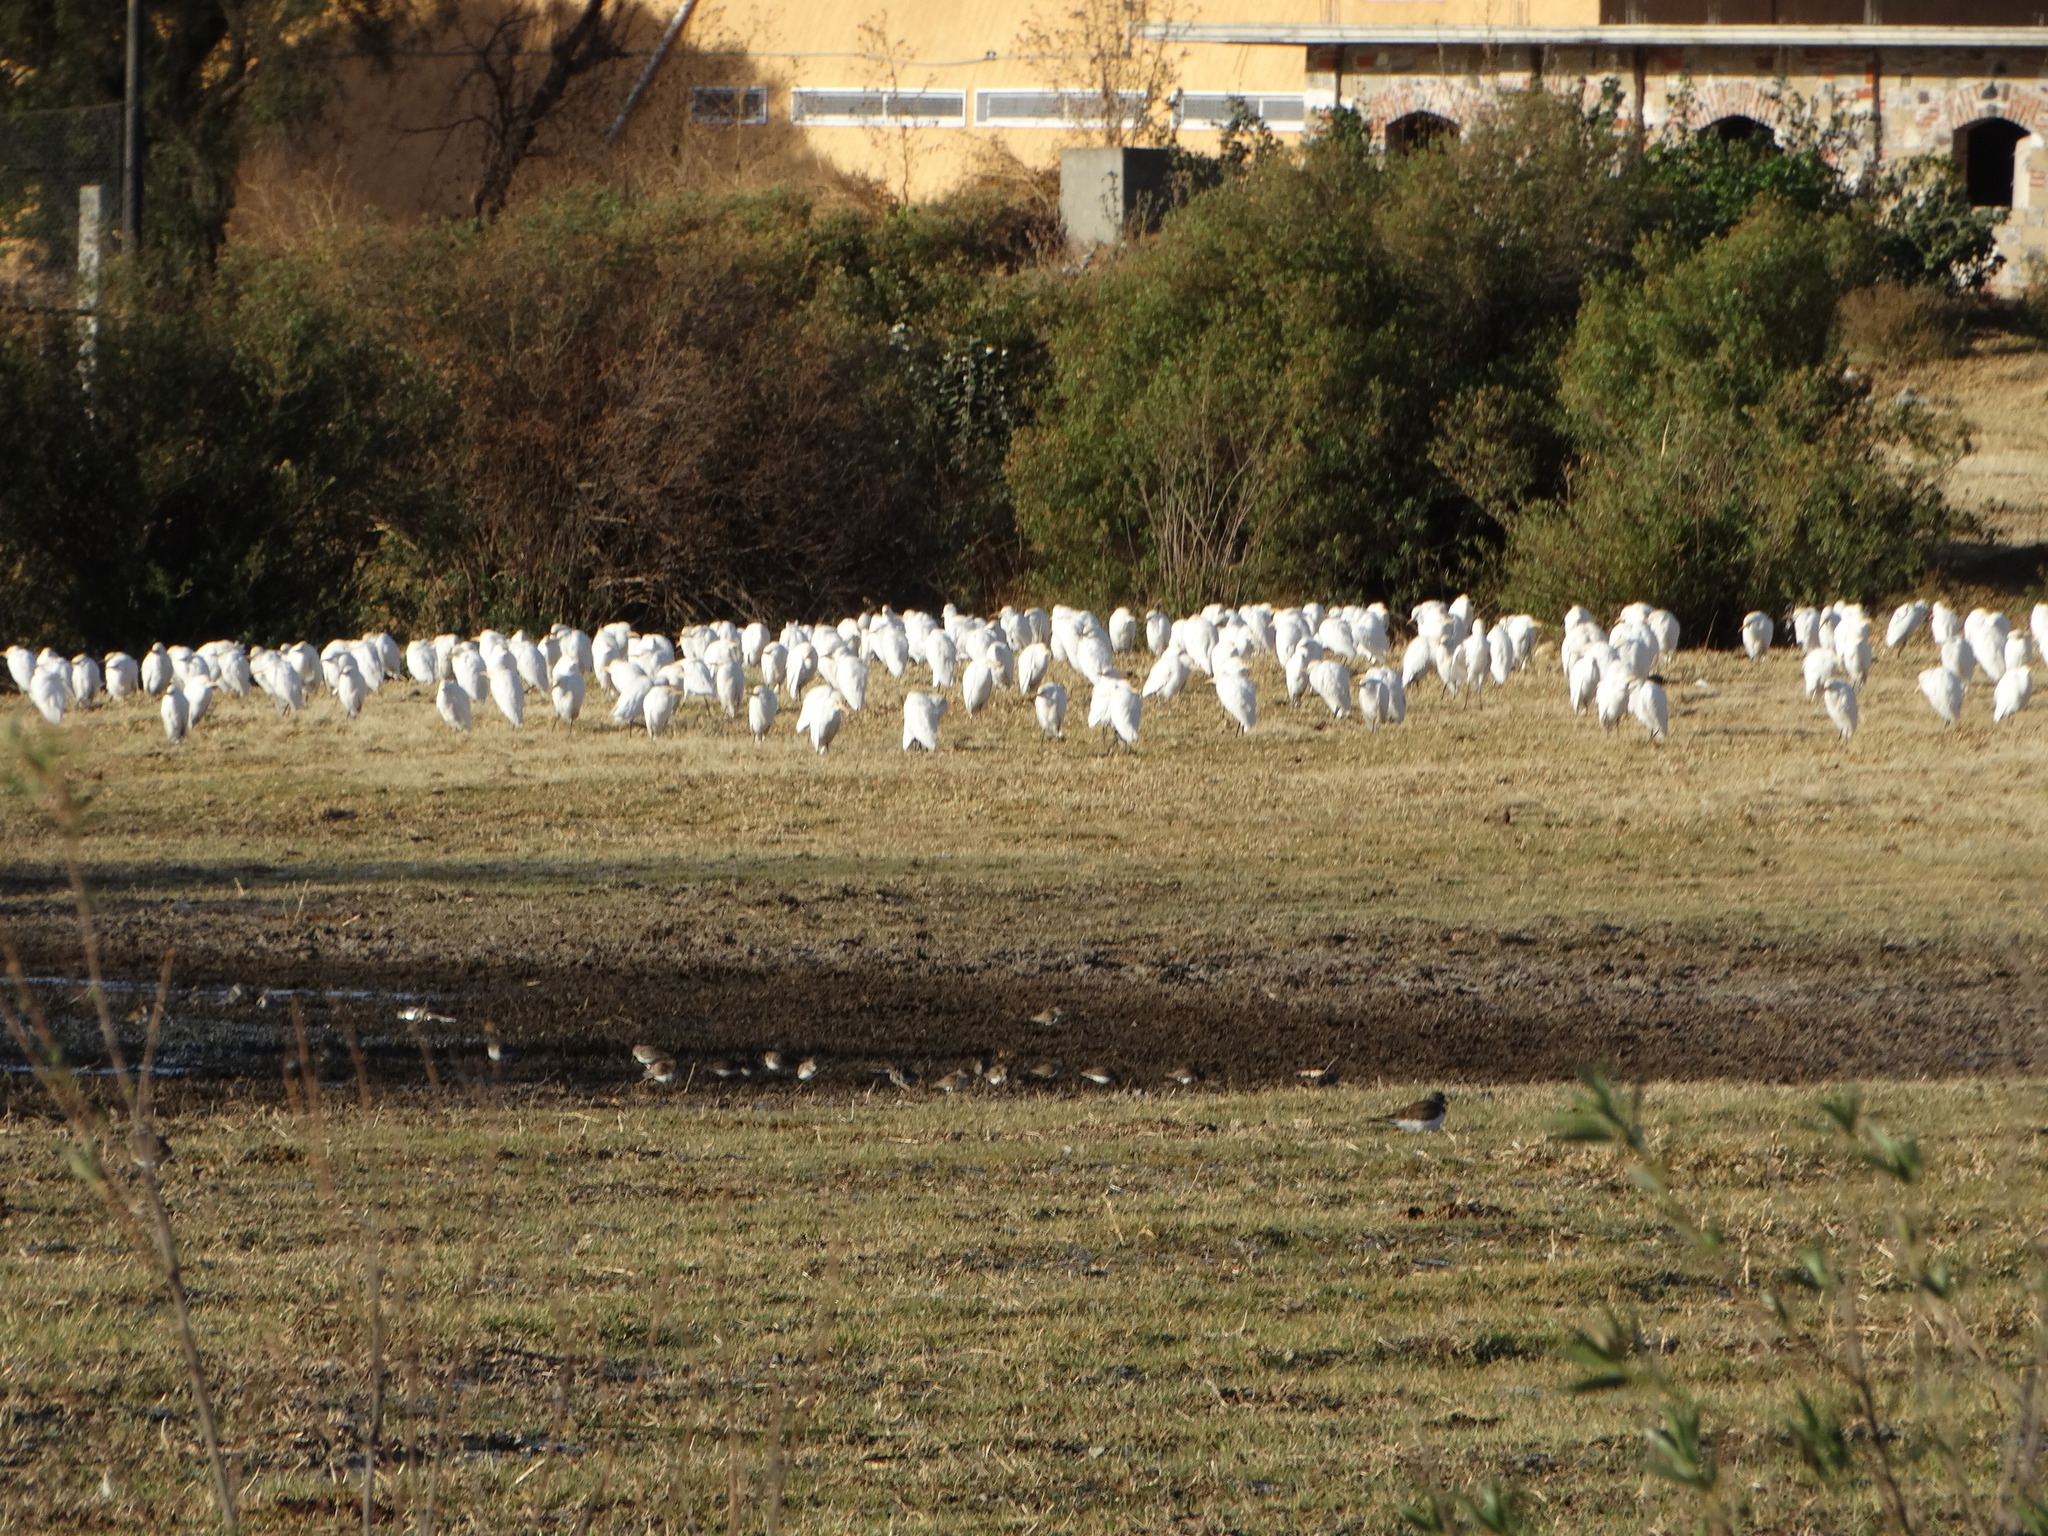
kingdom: Animalia
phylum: Chordata
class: Aves
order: Pelecaniformes
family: Ardeidae
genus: Bubulcus
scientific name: Bubulcus ibis
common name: Cattle egret
